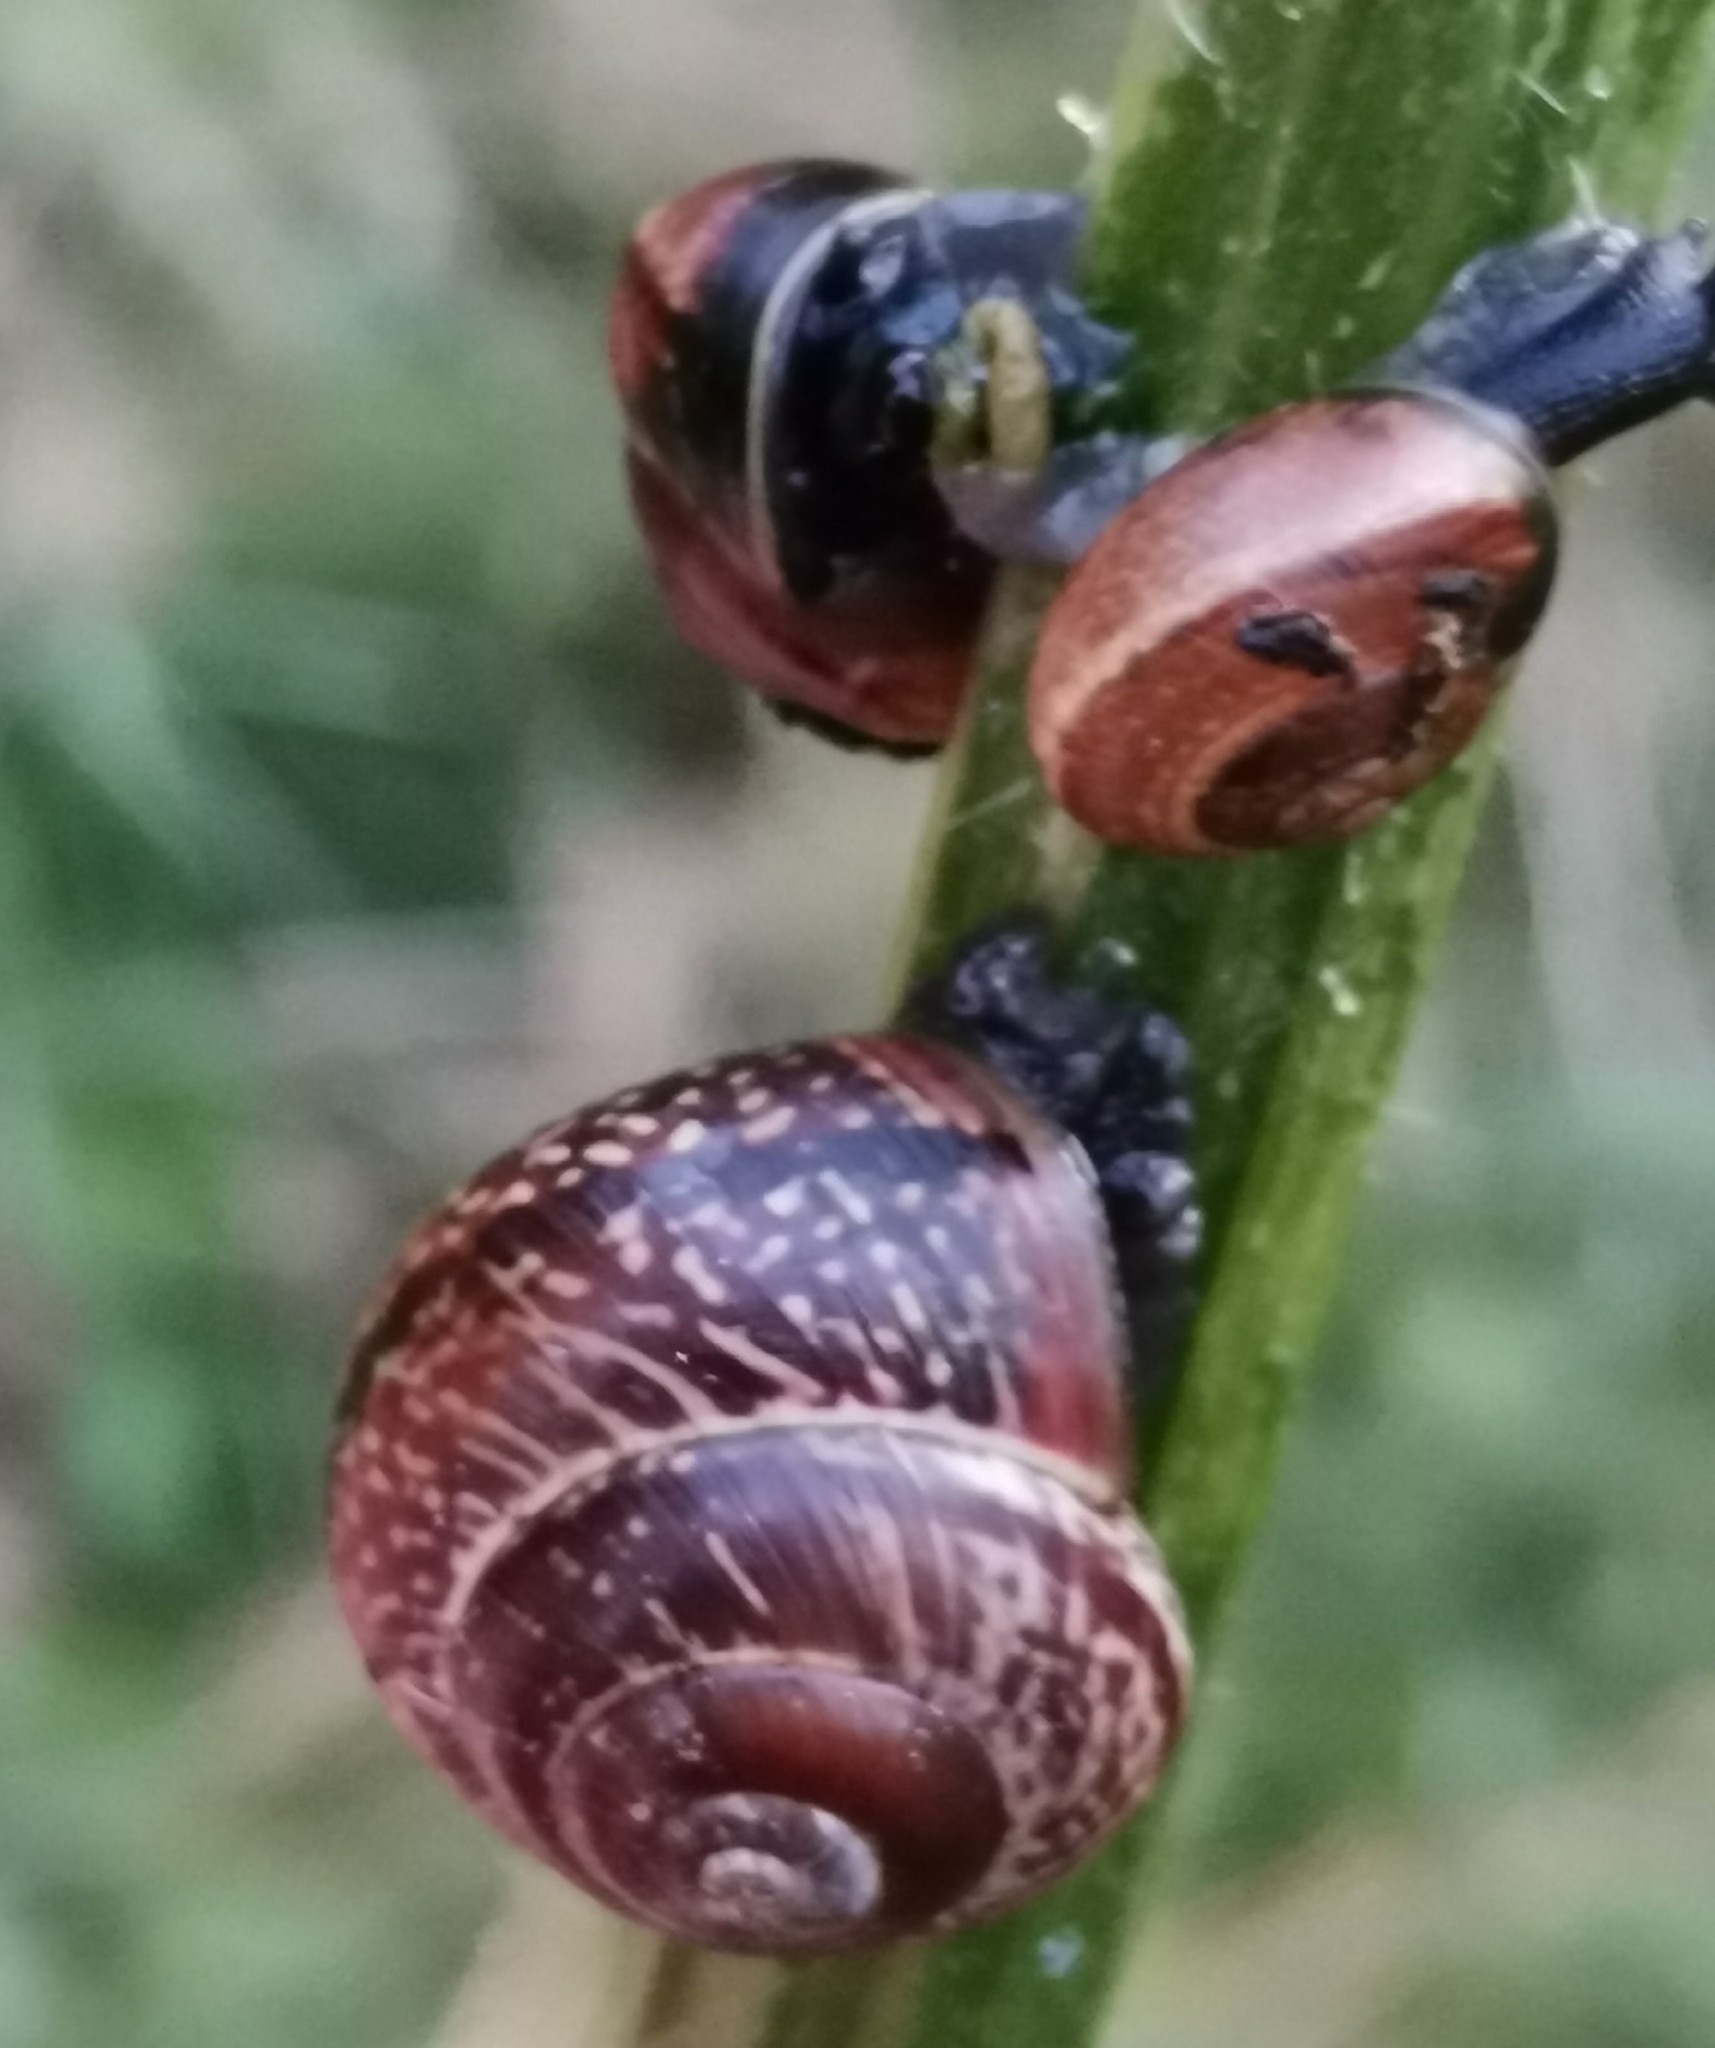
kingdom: Animalia
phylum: Mollusca
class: Gastropoda
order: Stylommatophora
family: Helicidae
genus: Arianta
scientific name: Arianta arbustorum
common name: Copse snail
